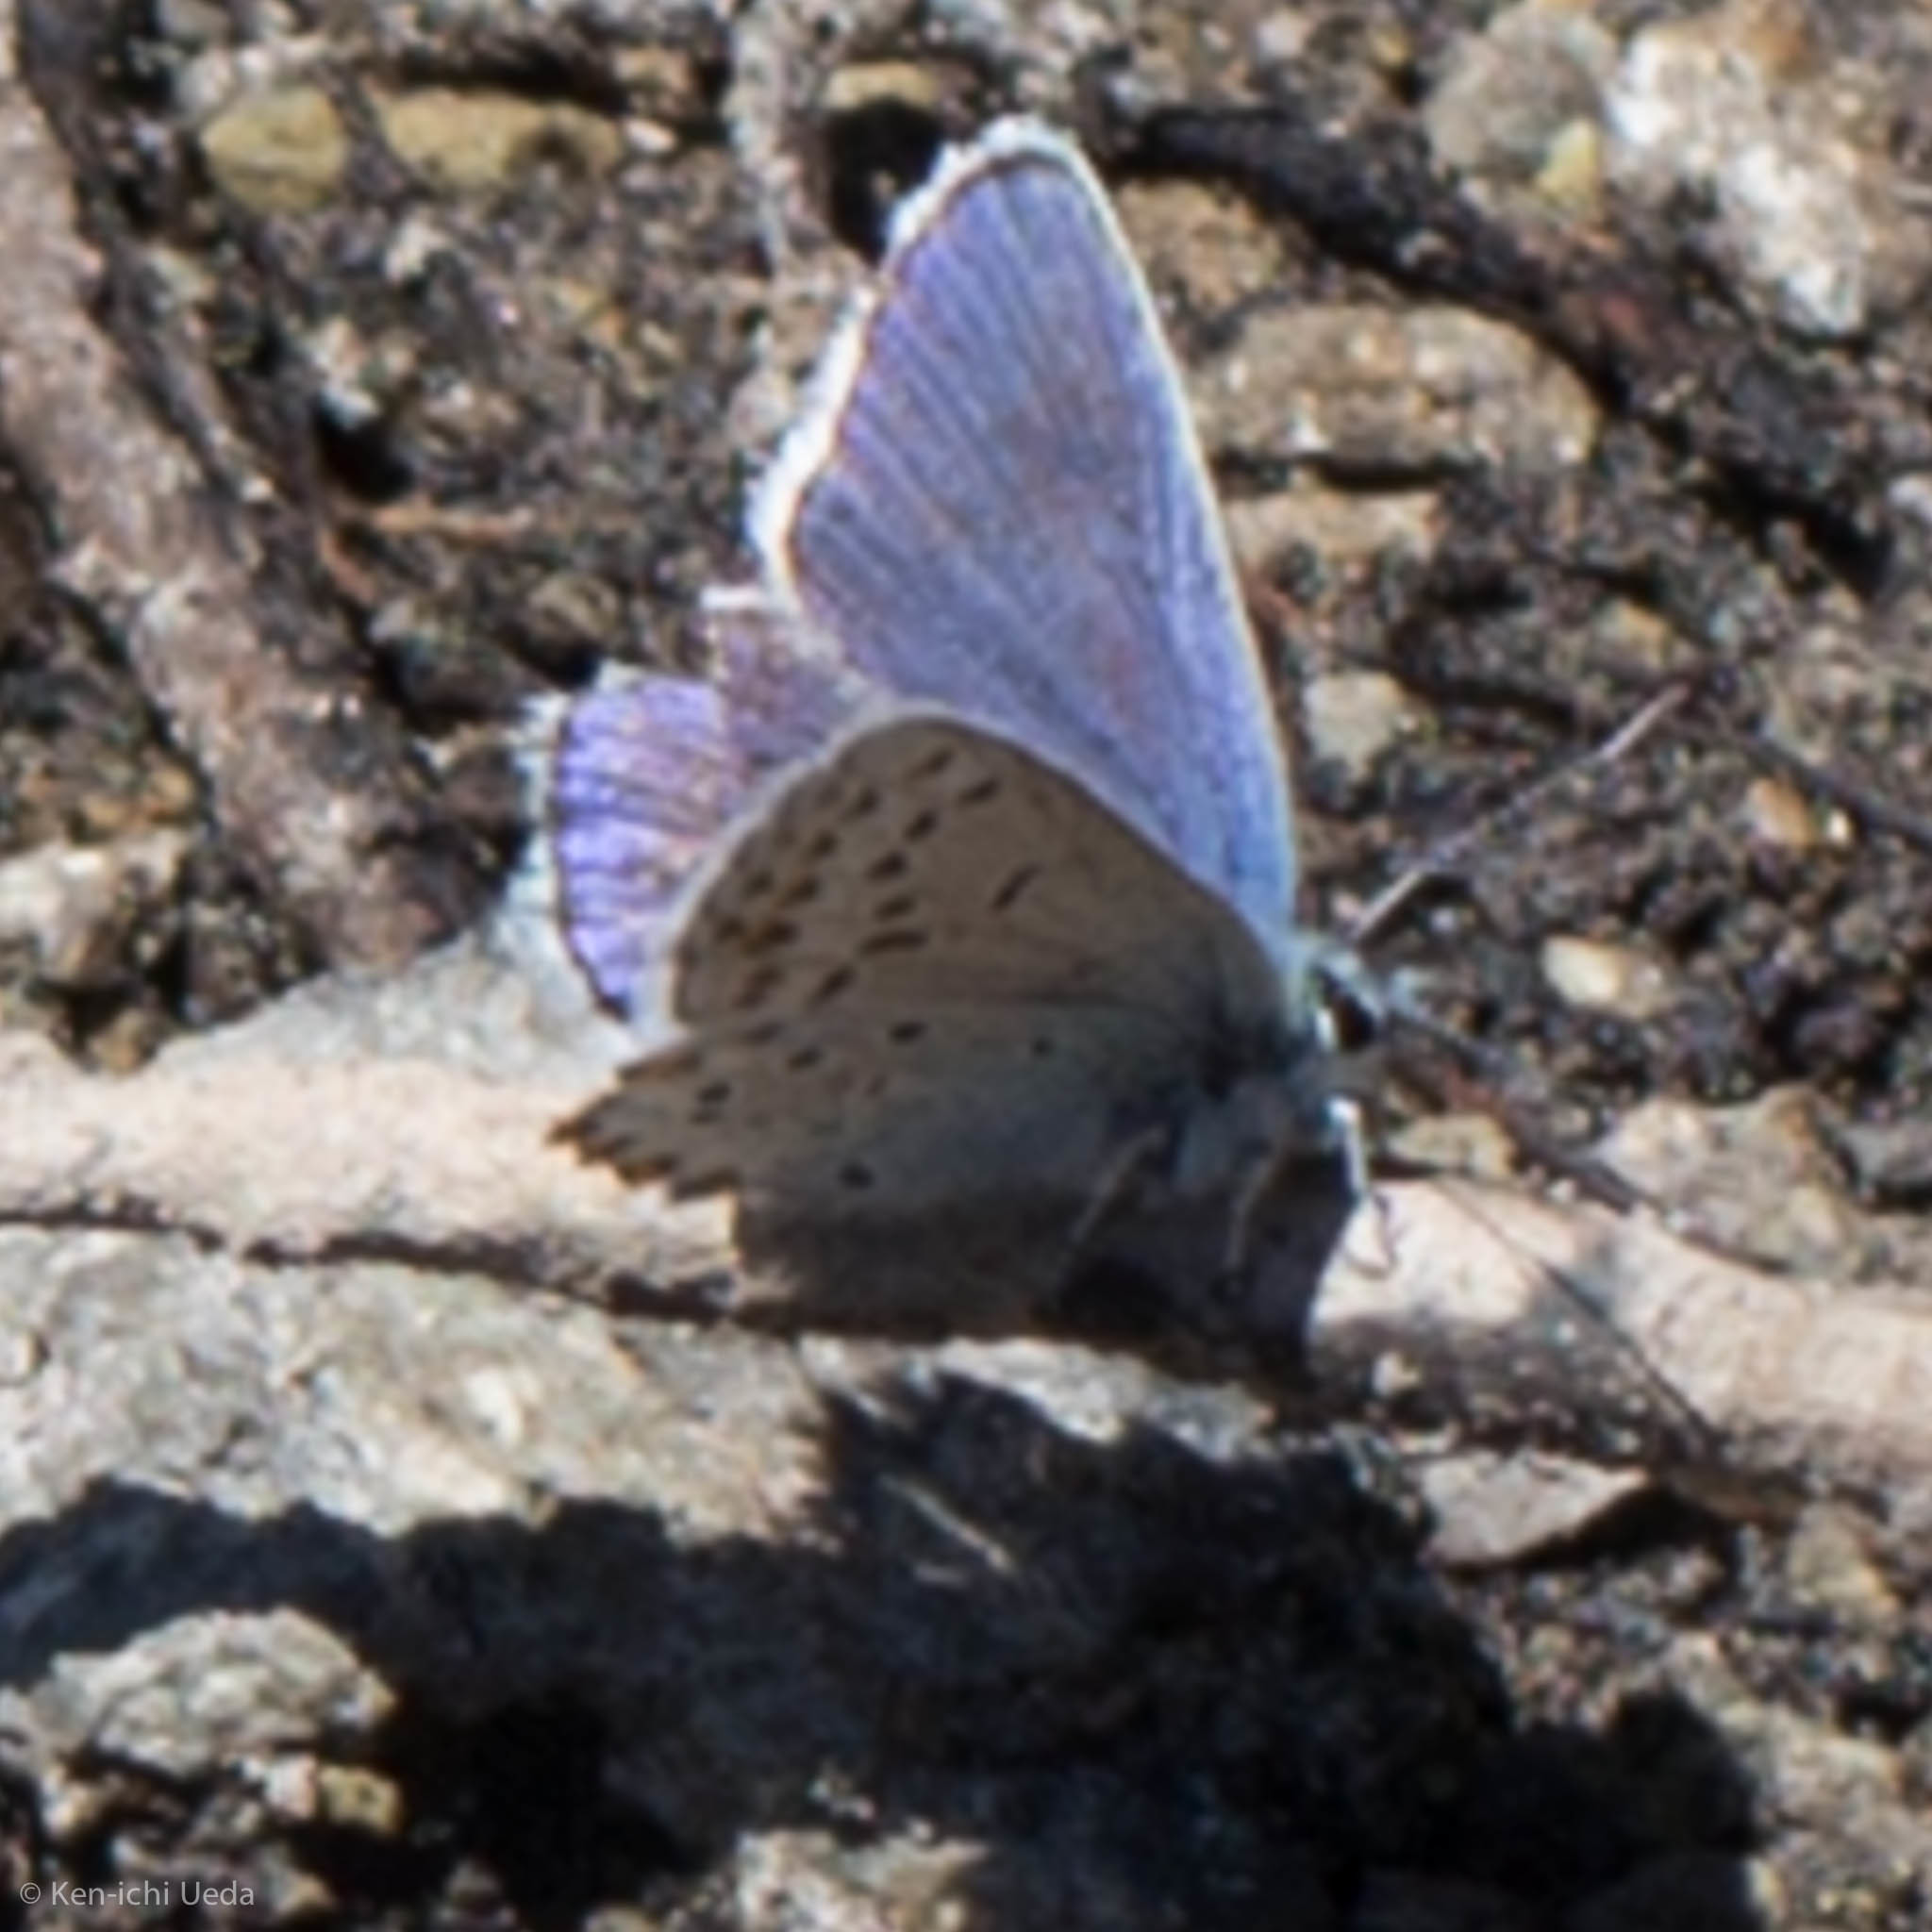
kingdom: Animalia
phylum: Arthropoda
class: Insecta
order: Lepidoptera
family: Lycaenidae
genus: Plebejus
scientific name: Plebejus fridayi
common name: Friday's blue
